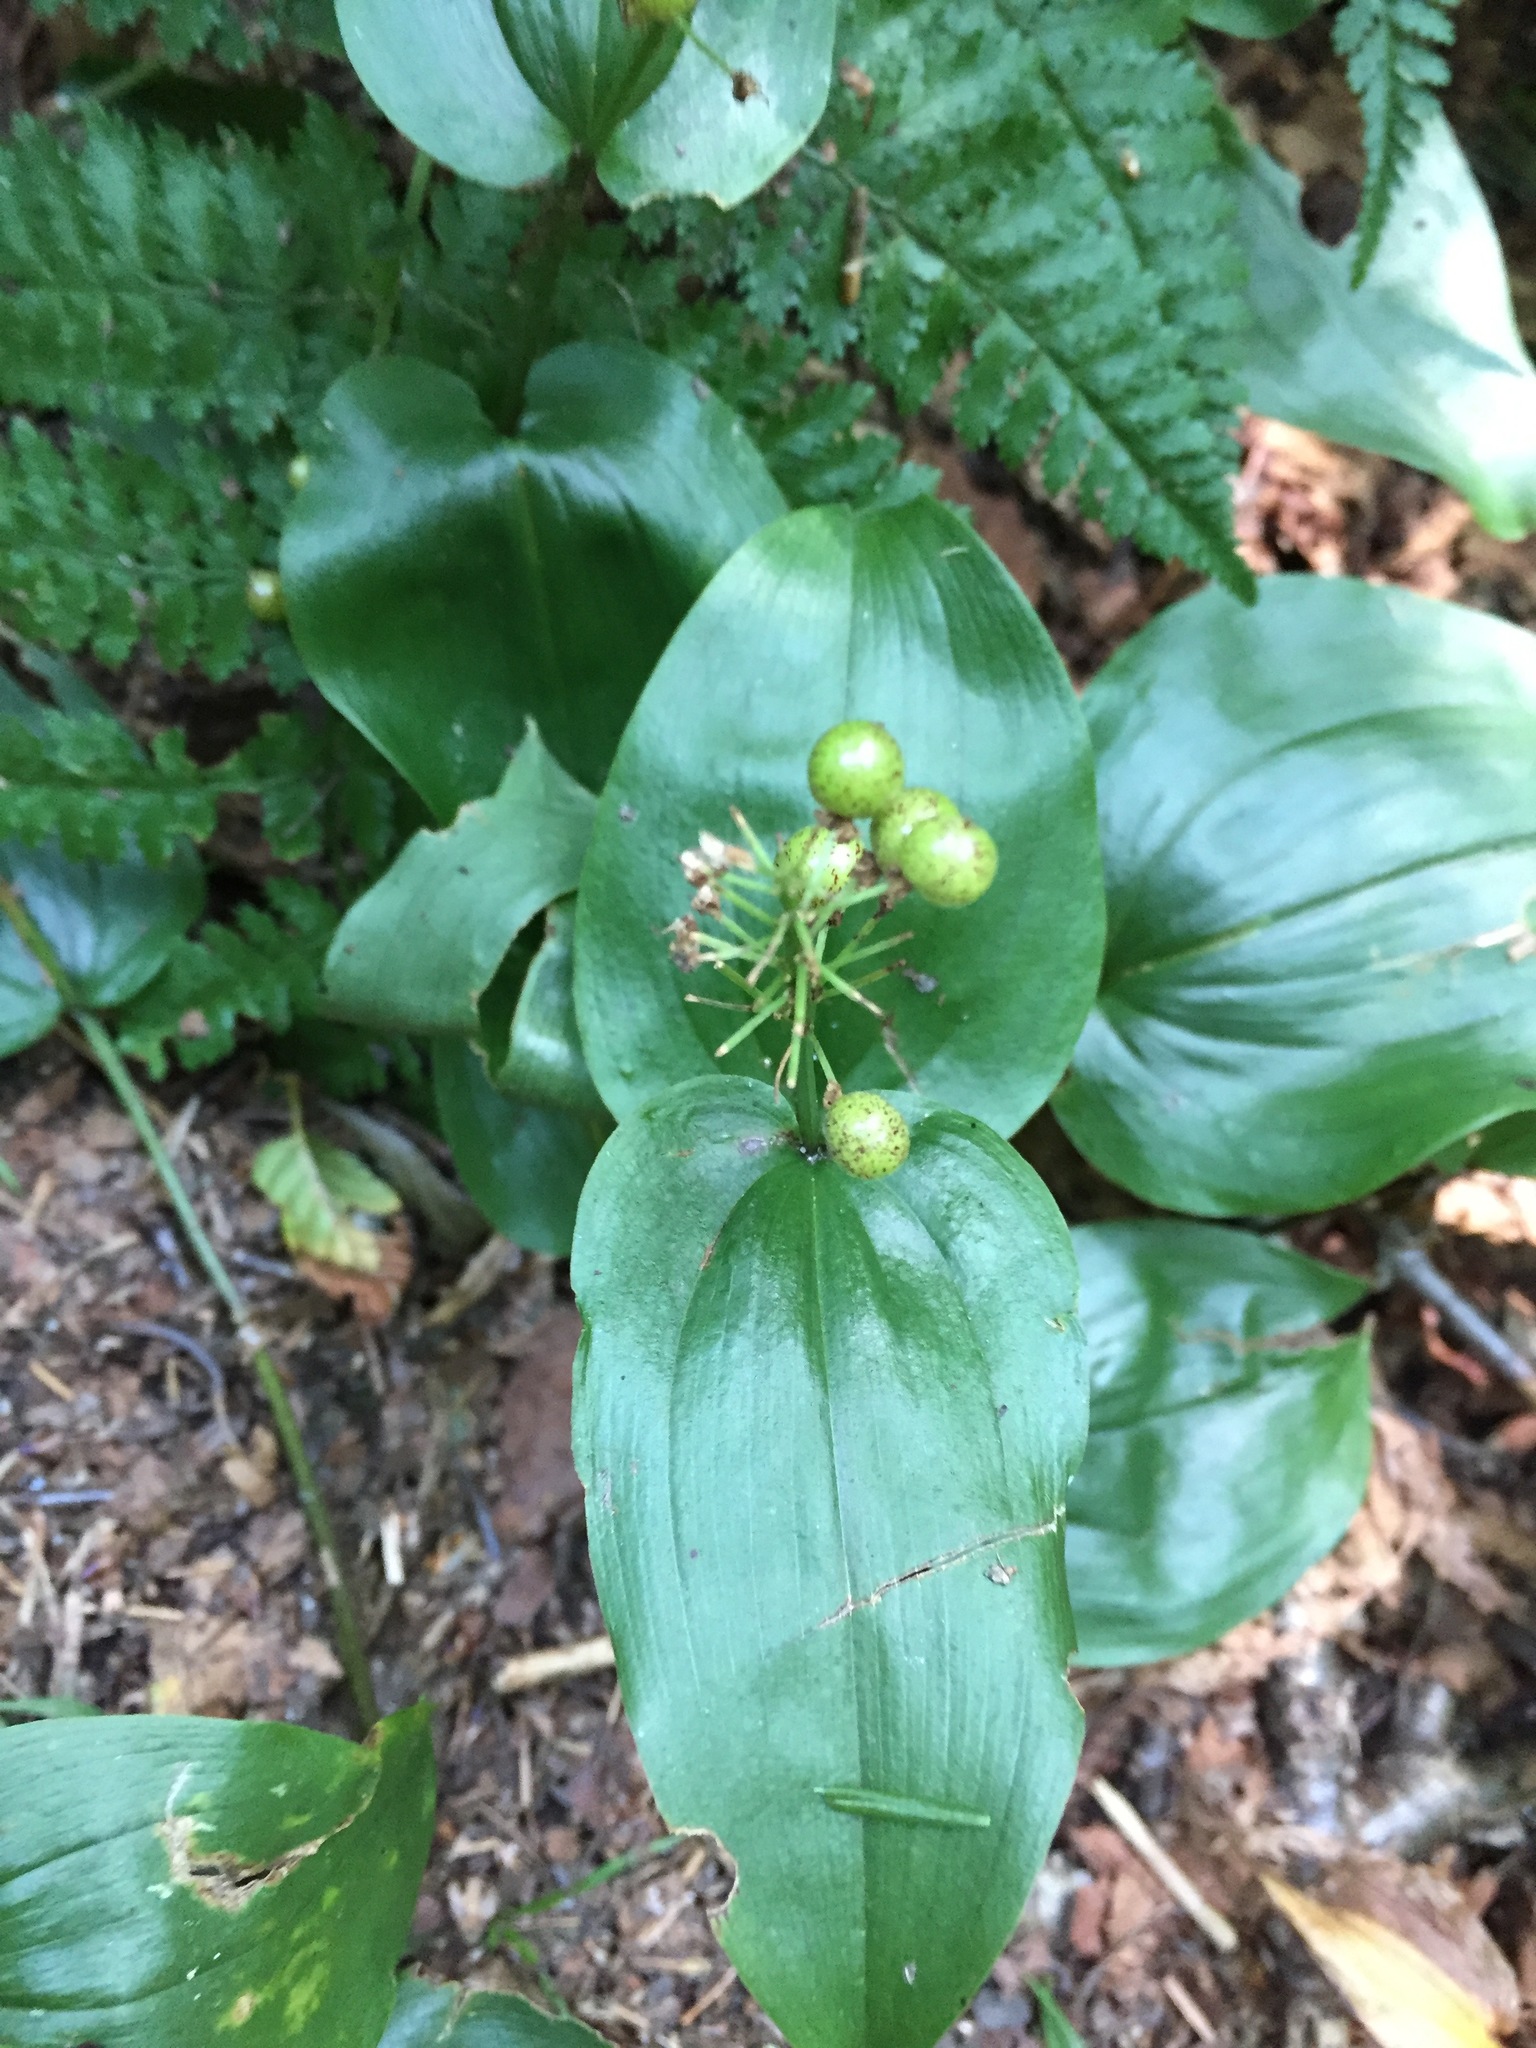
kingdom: Plantae
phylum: Tracheophyta
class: Liliopsida
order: Asparagales
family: Asparagaceae
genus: Maianthemum
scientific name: Maianthemum canadense
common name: False lily-of-the-valley
